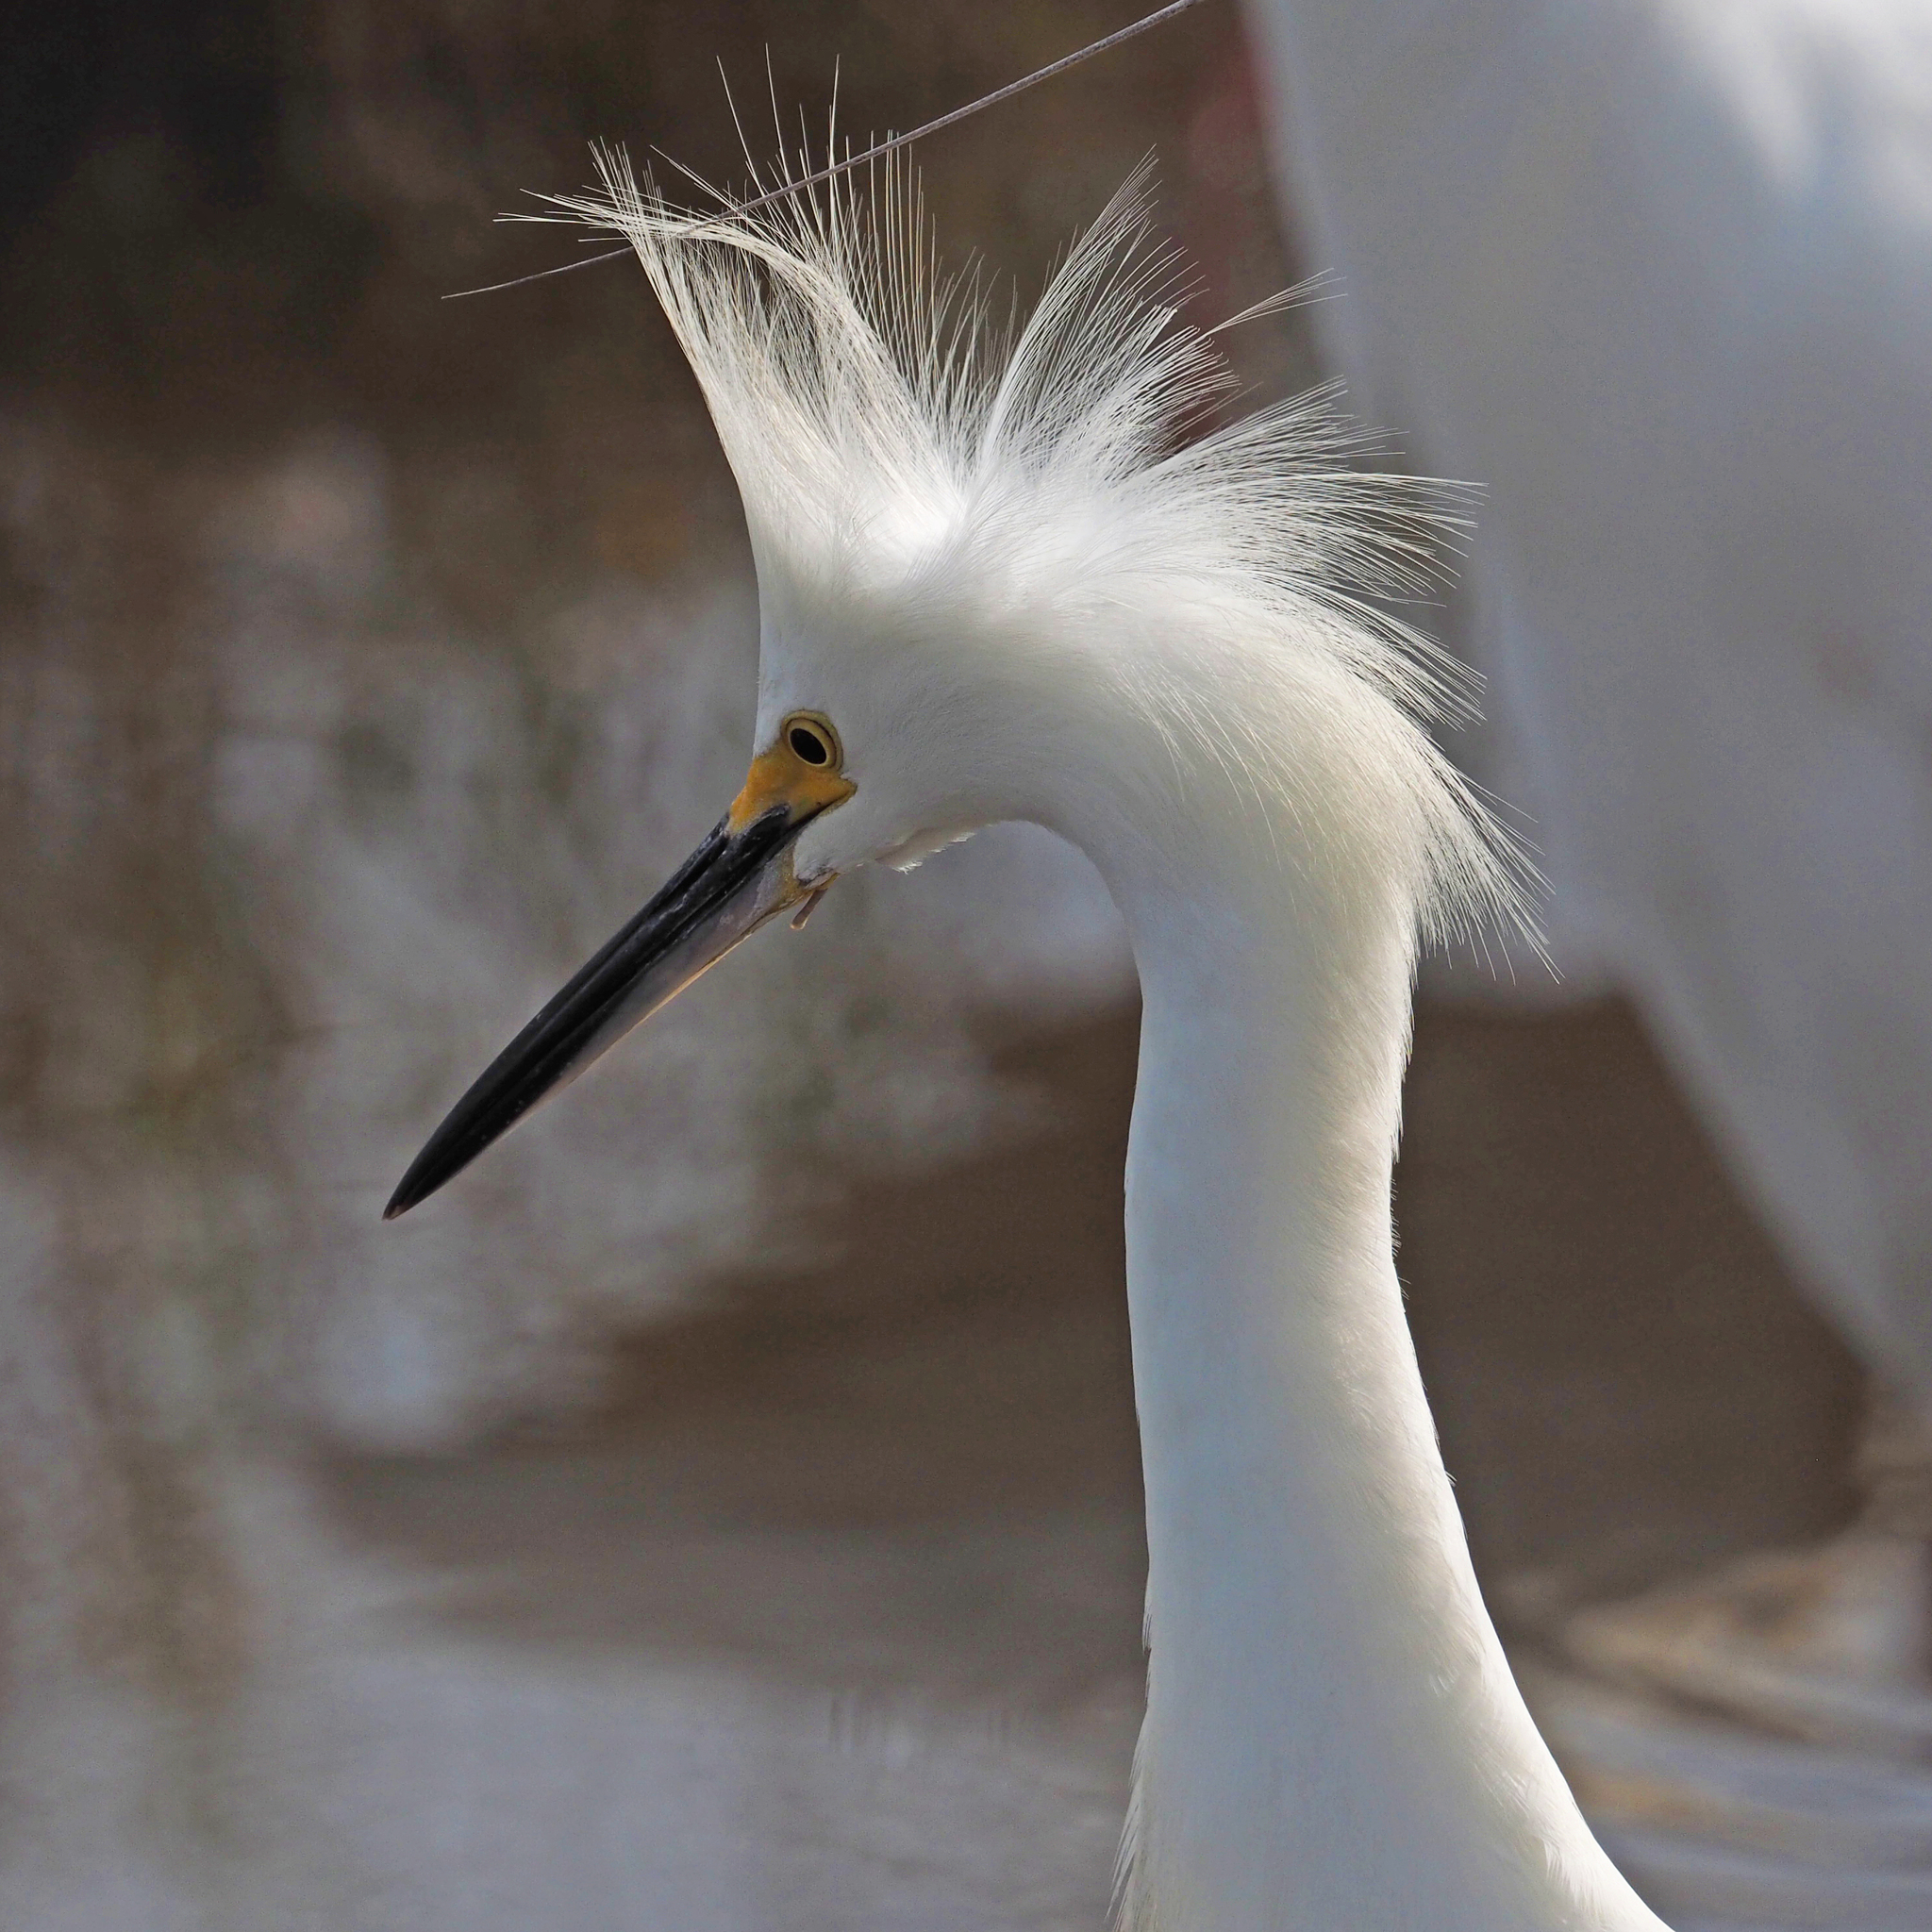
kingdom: Animalia
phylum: Chordata
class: Aves
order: Pelecaniformes
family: Ardeidae
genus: Egretta
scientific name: Egretta thula
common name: Snowy egret
